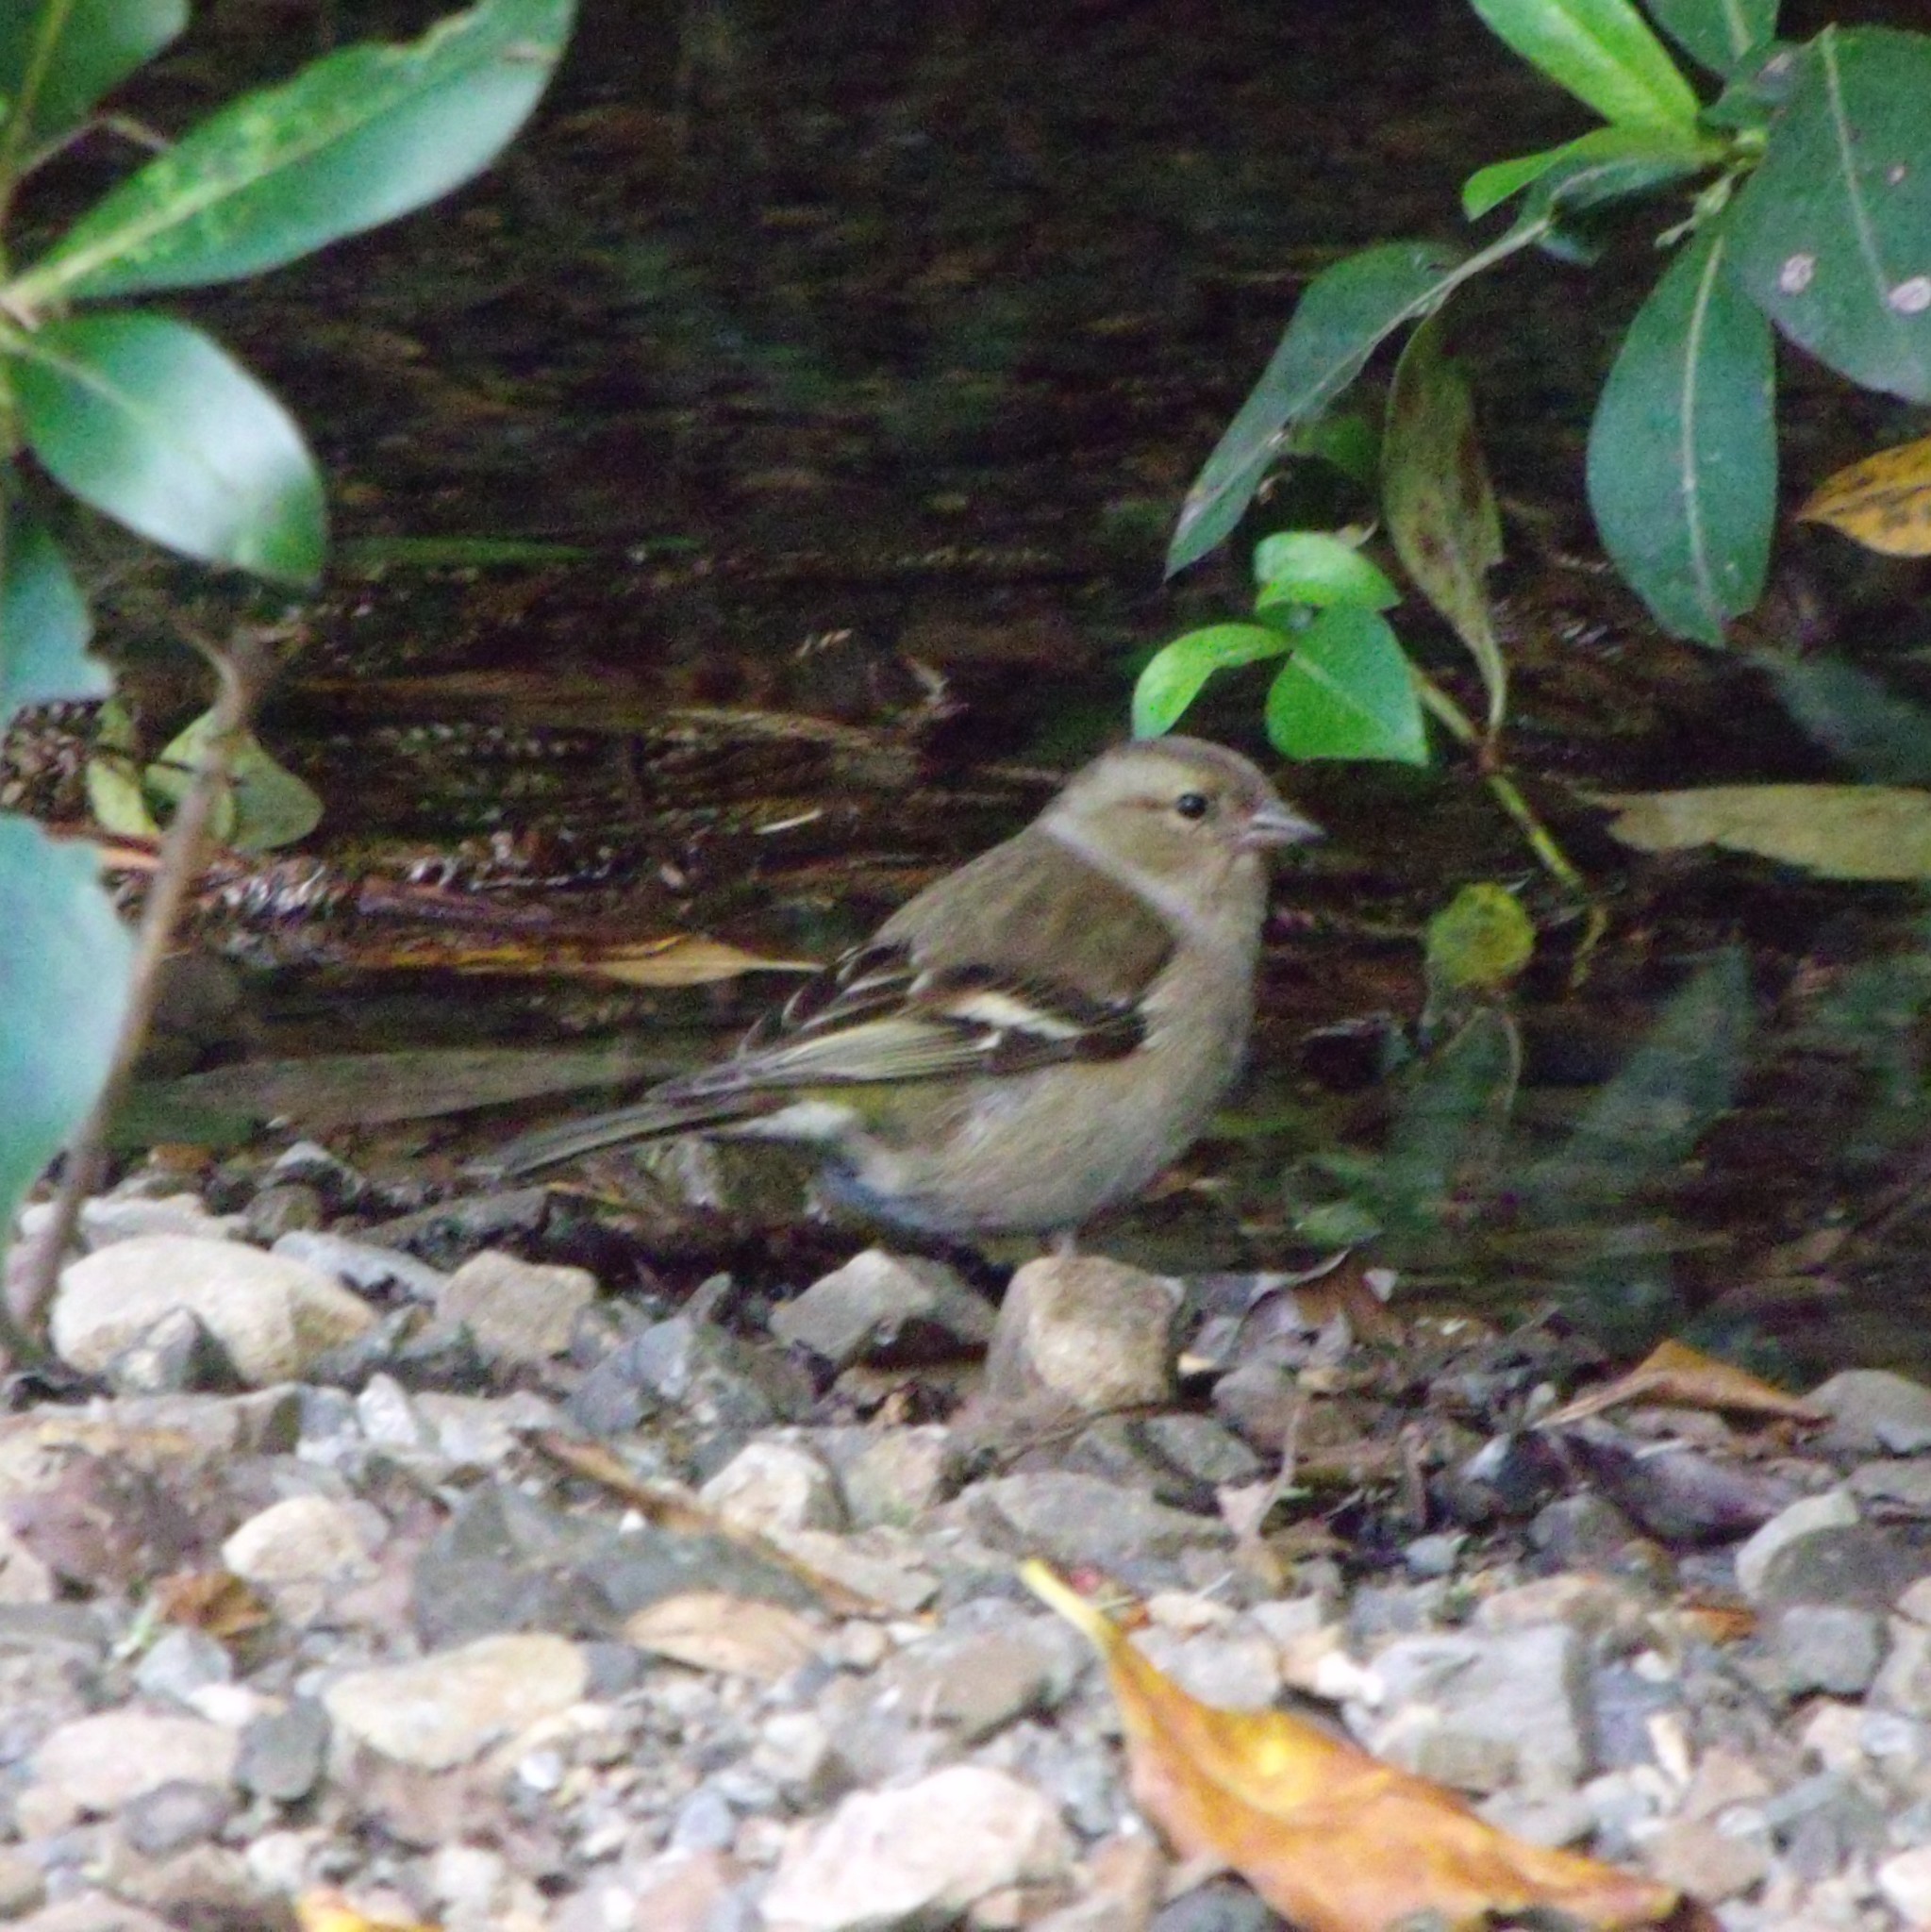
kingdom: Animalia
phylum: Chordata
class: Aves
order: Passeriformes
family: Fringillidae
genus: Fringilla
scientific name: Fringilla coelebs
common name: Common chaffinch
